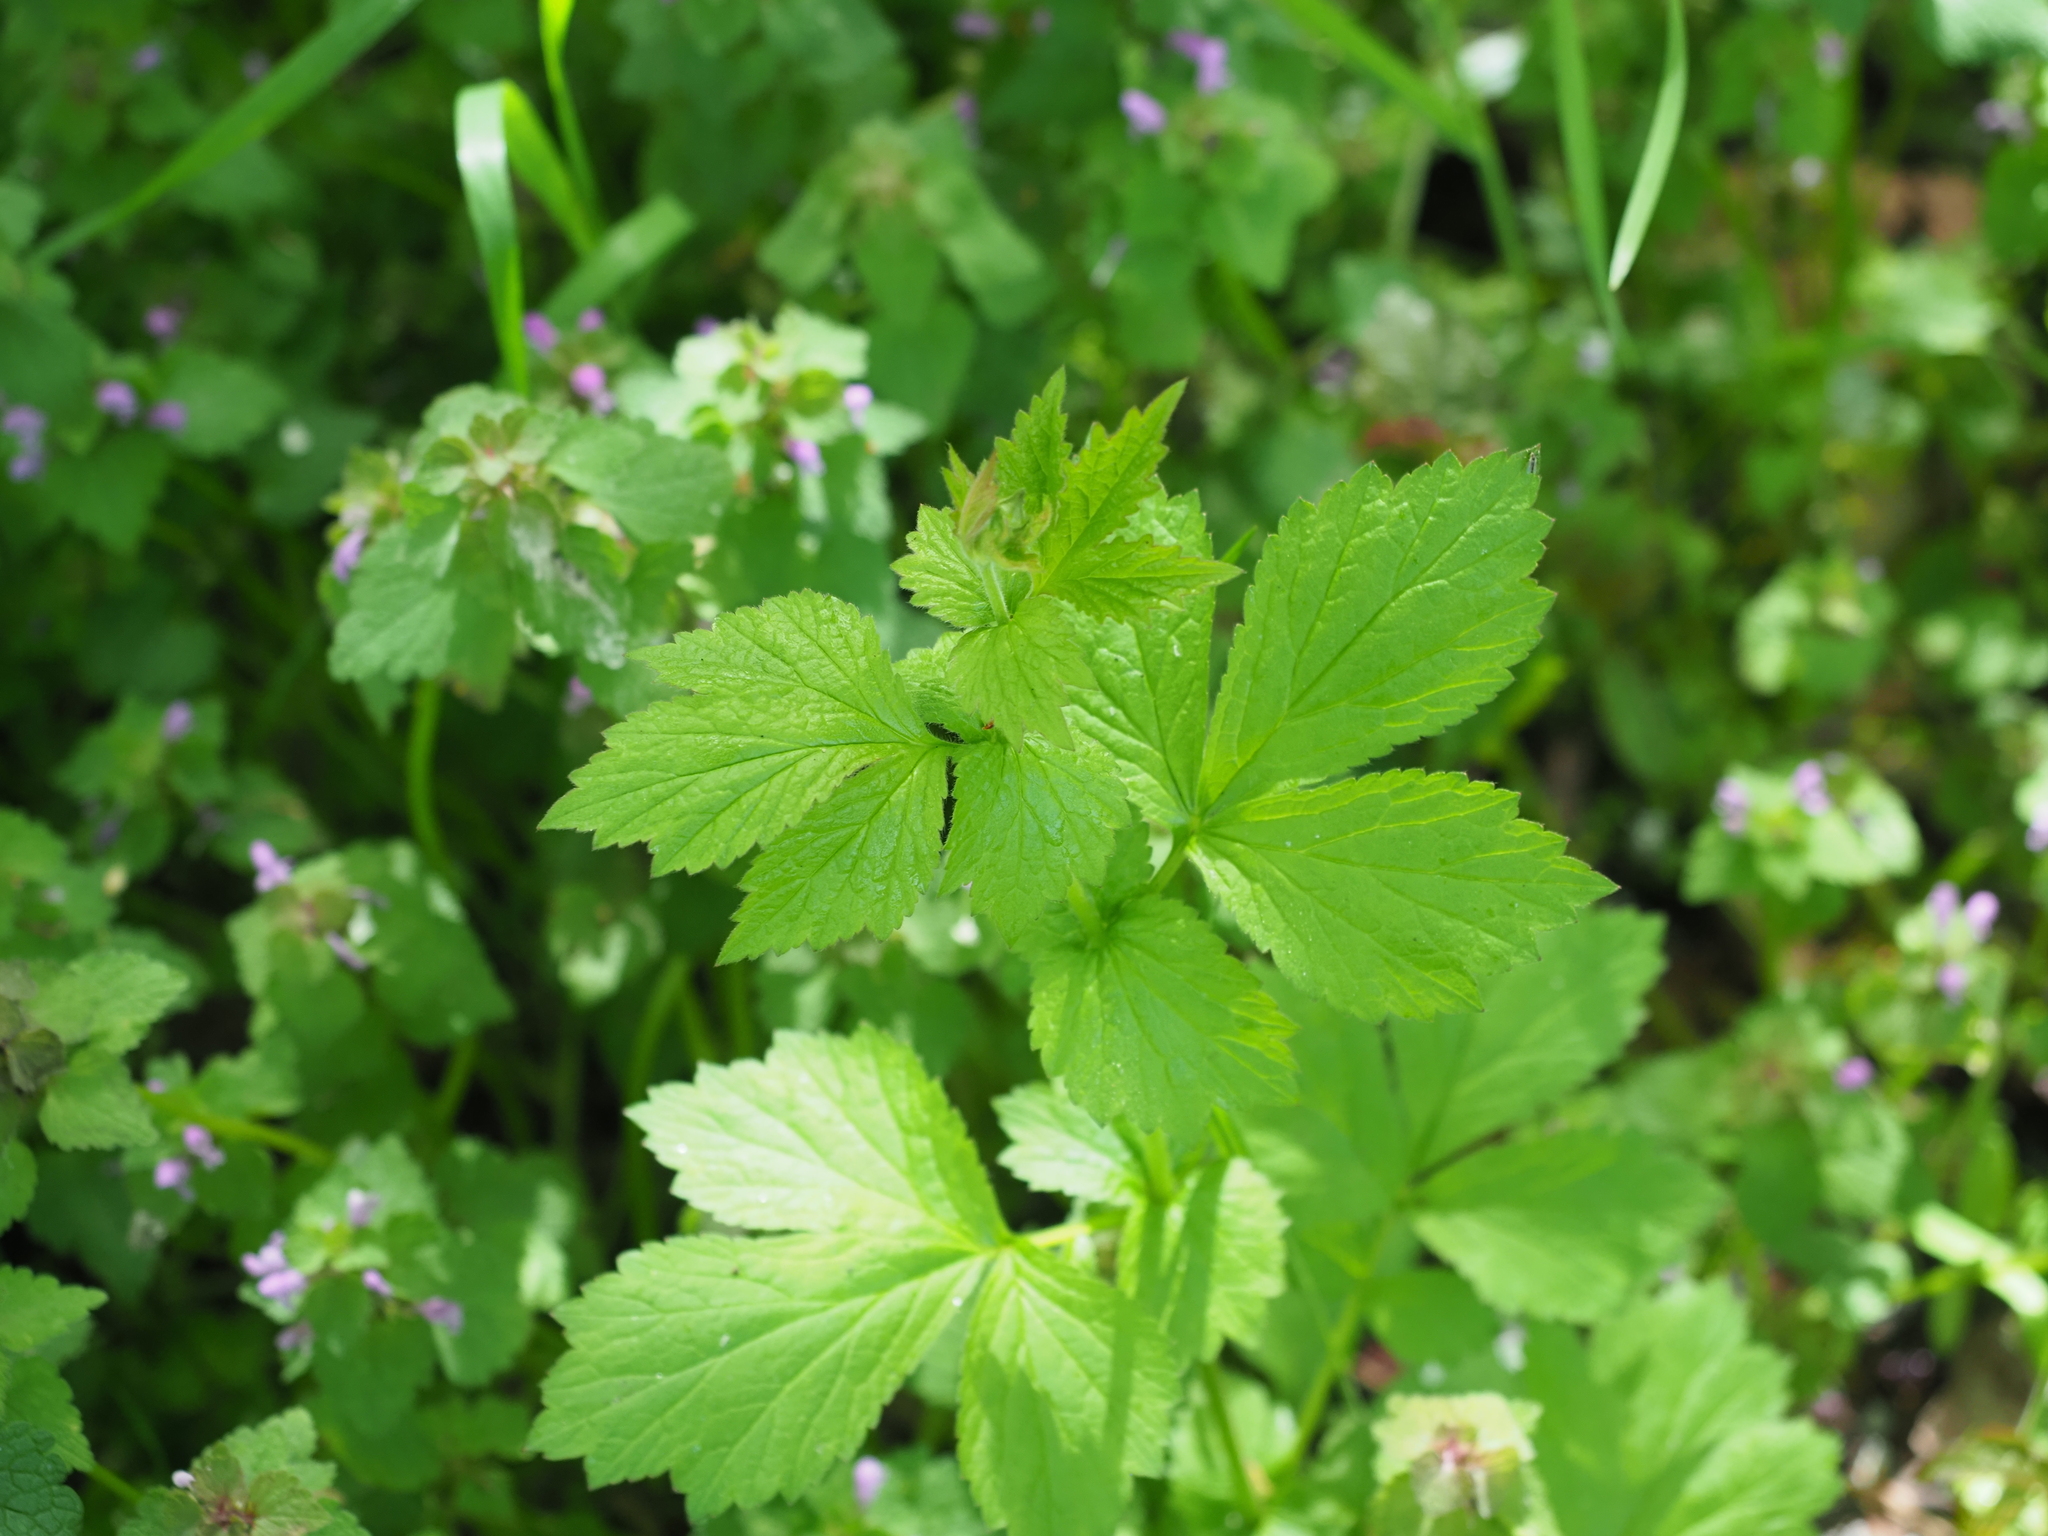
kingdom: Plantae
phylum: Tracheophyta
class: Magnoliopsida
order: Rosales
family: Rosaceae
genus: Geum
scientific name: Geum urbanum
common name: Wood avens
